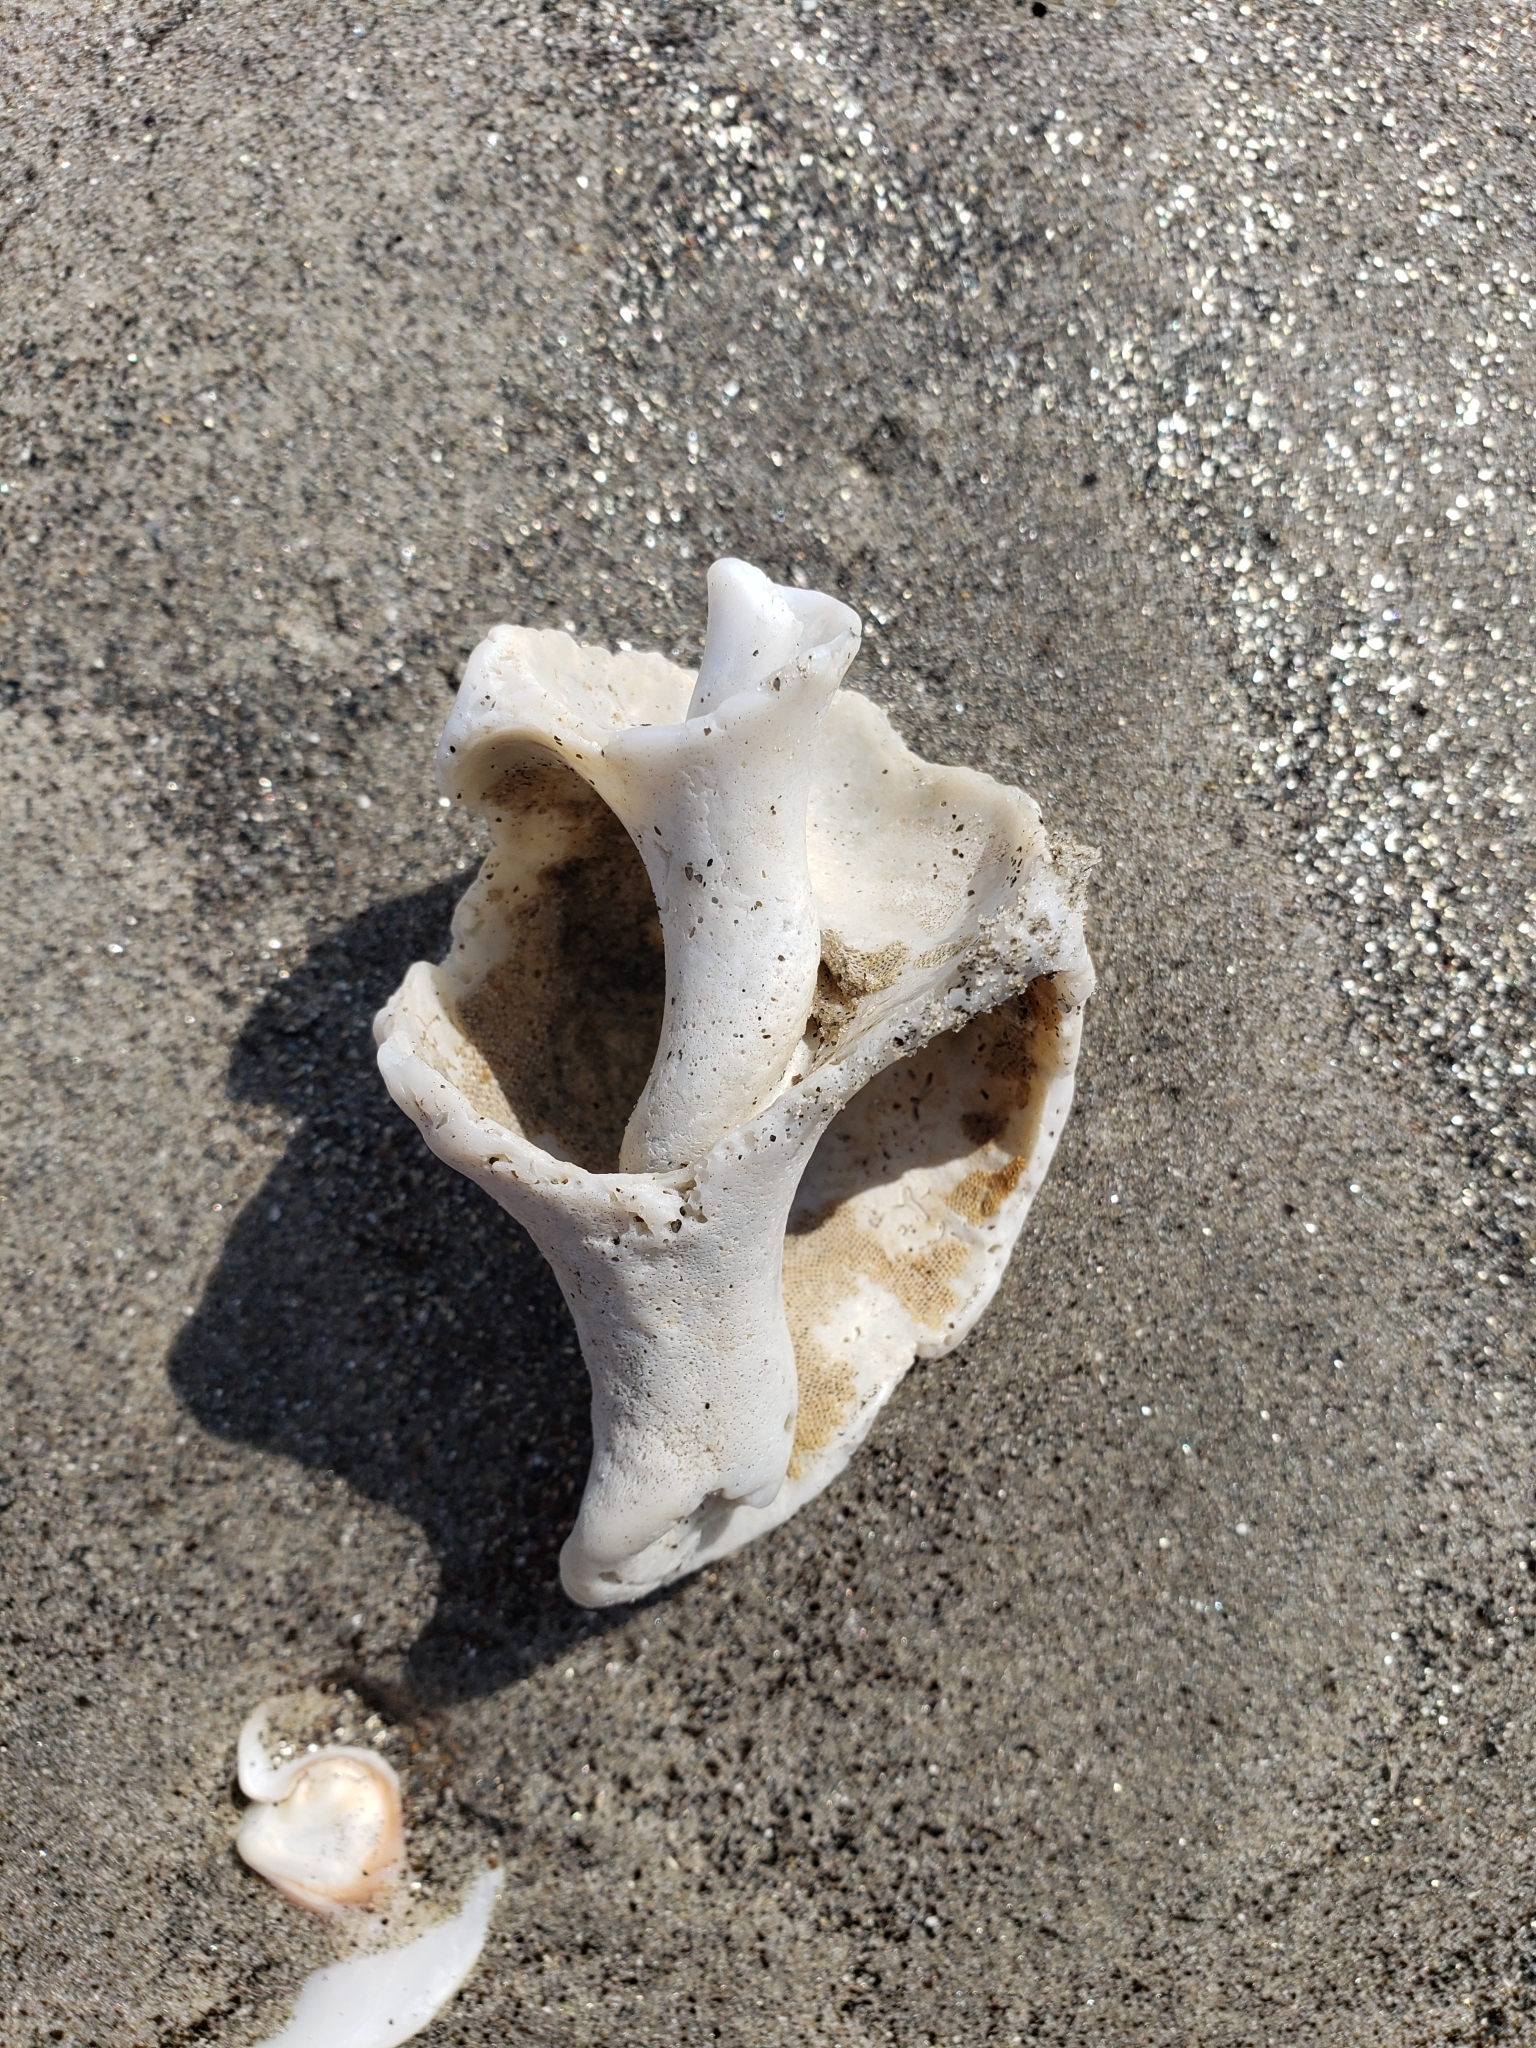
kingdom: Animalia
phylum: Mollusca
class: Gastropoda
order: Neogastropoda
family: Austrosiphonidae
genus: Kelletia
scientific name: Kelletia kelletii
